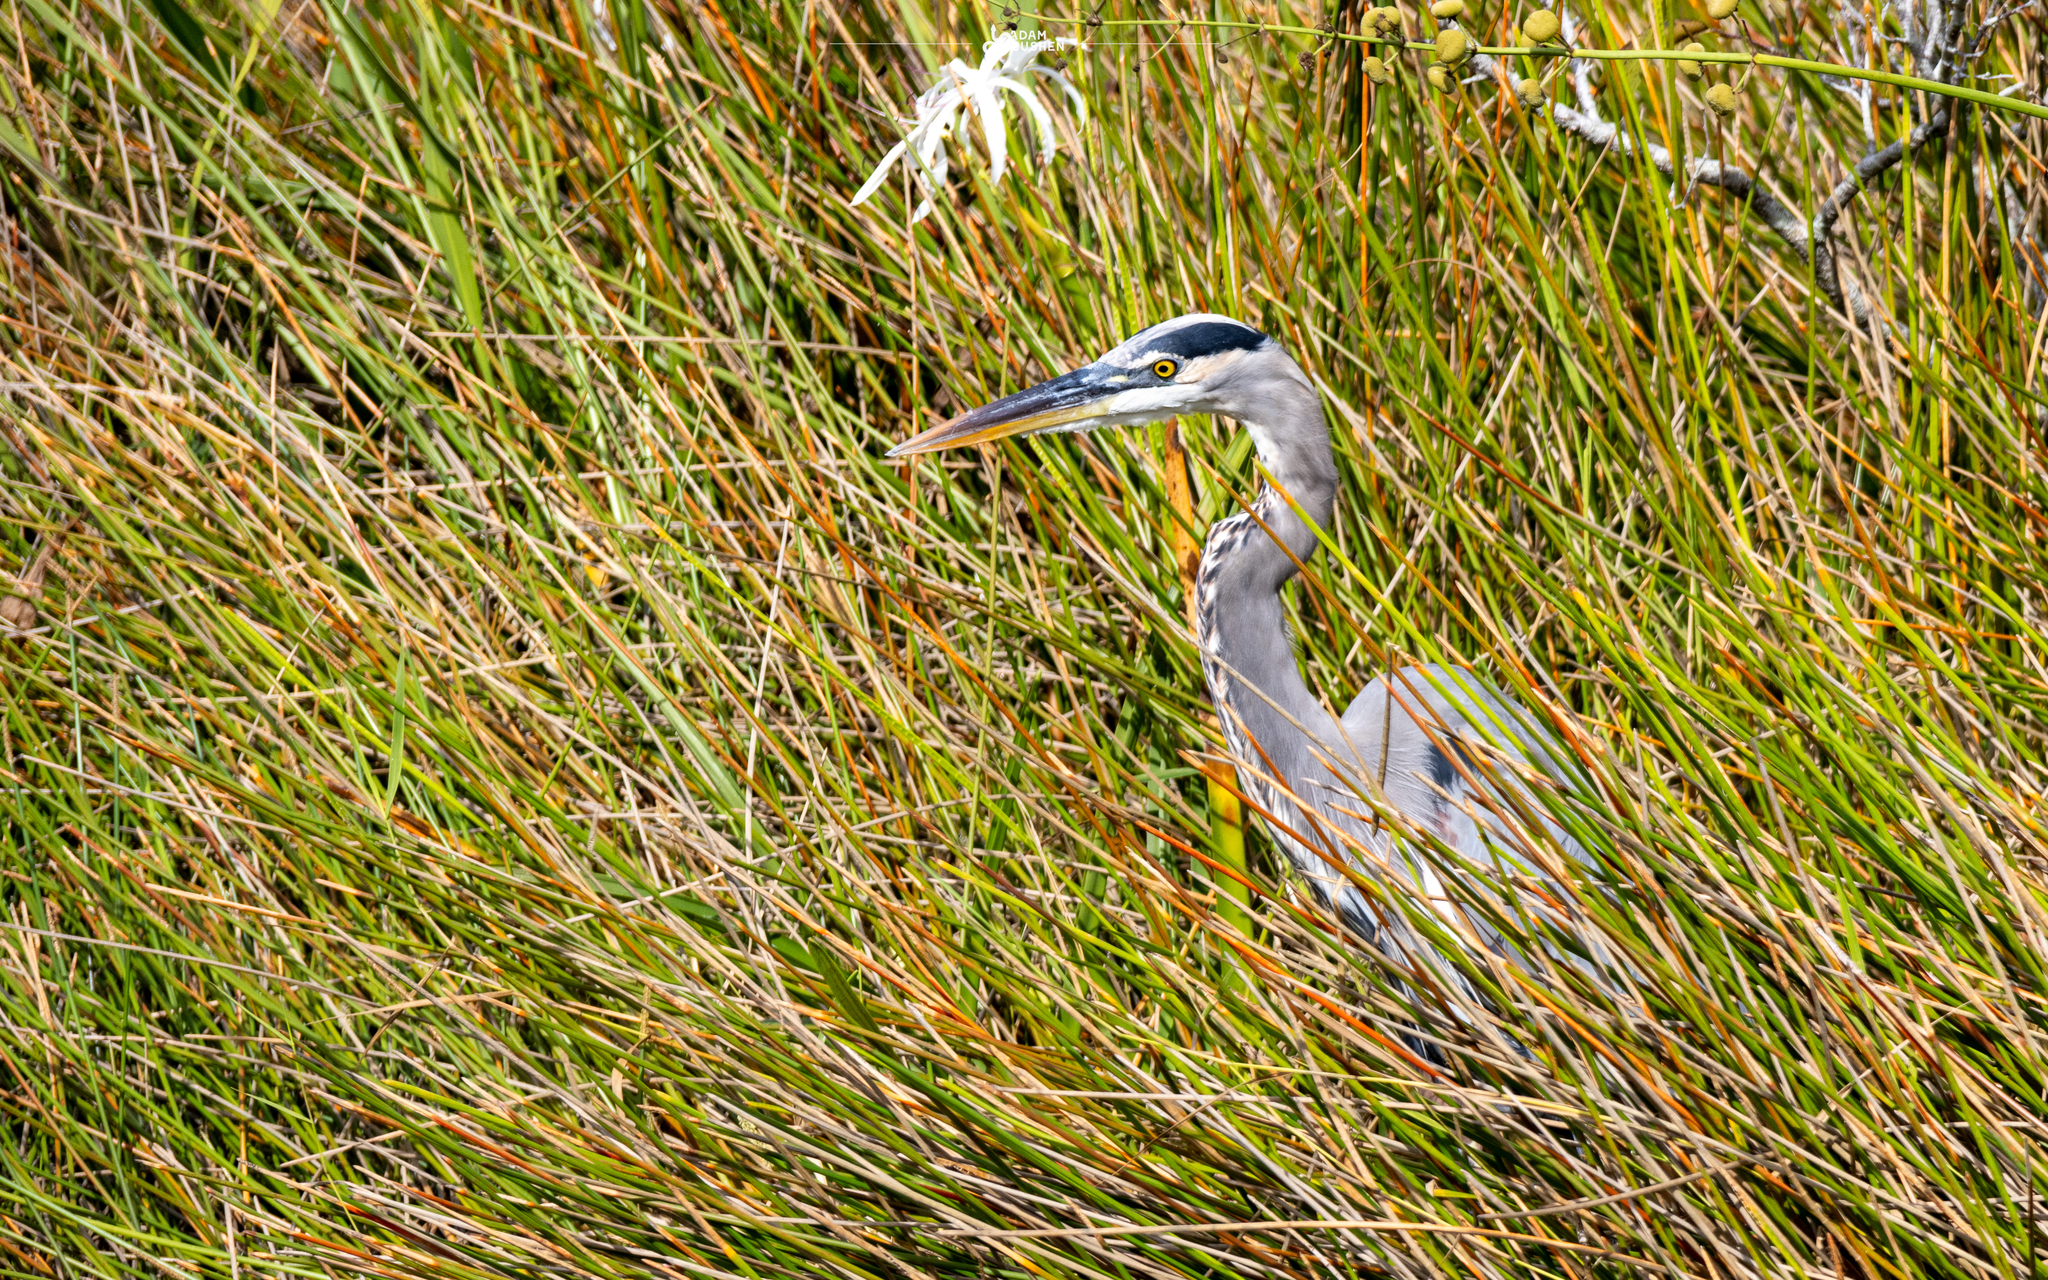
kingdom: Animalia
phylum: Chordata
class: Aves
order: Pelecaniformes
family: Ardeidae
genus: Ardea
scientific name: Ardea herodias
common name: Great blue heron
